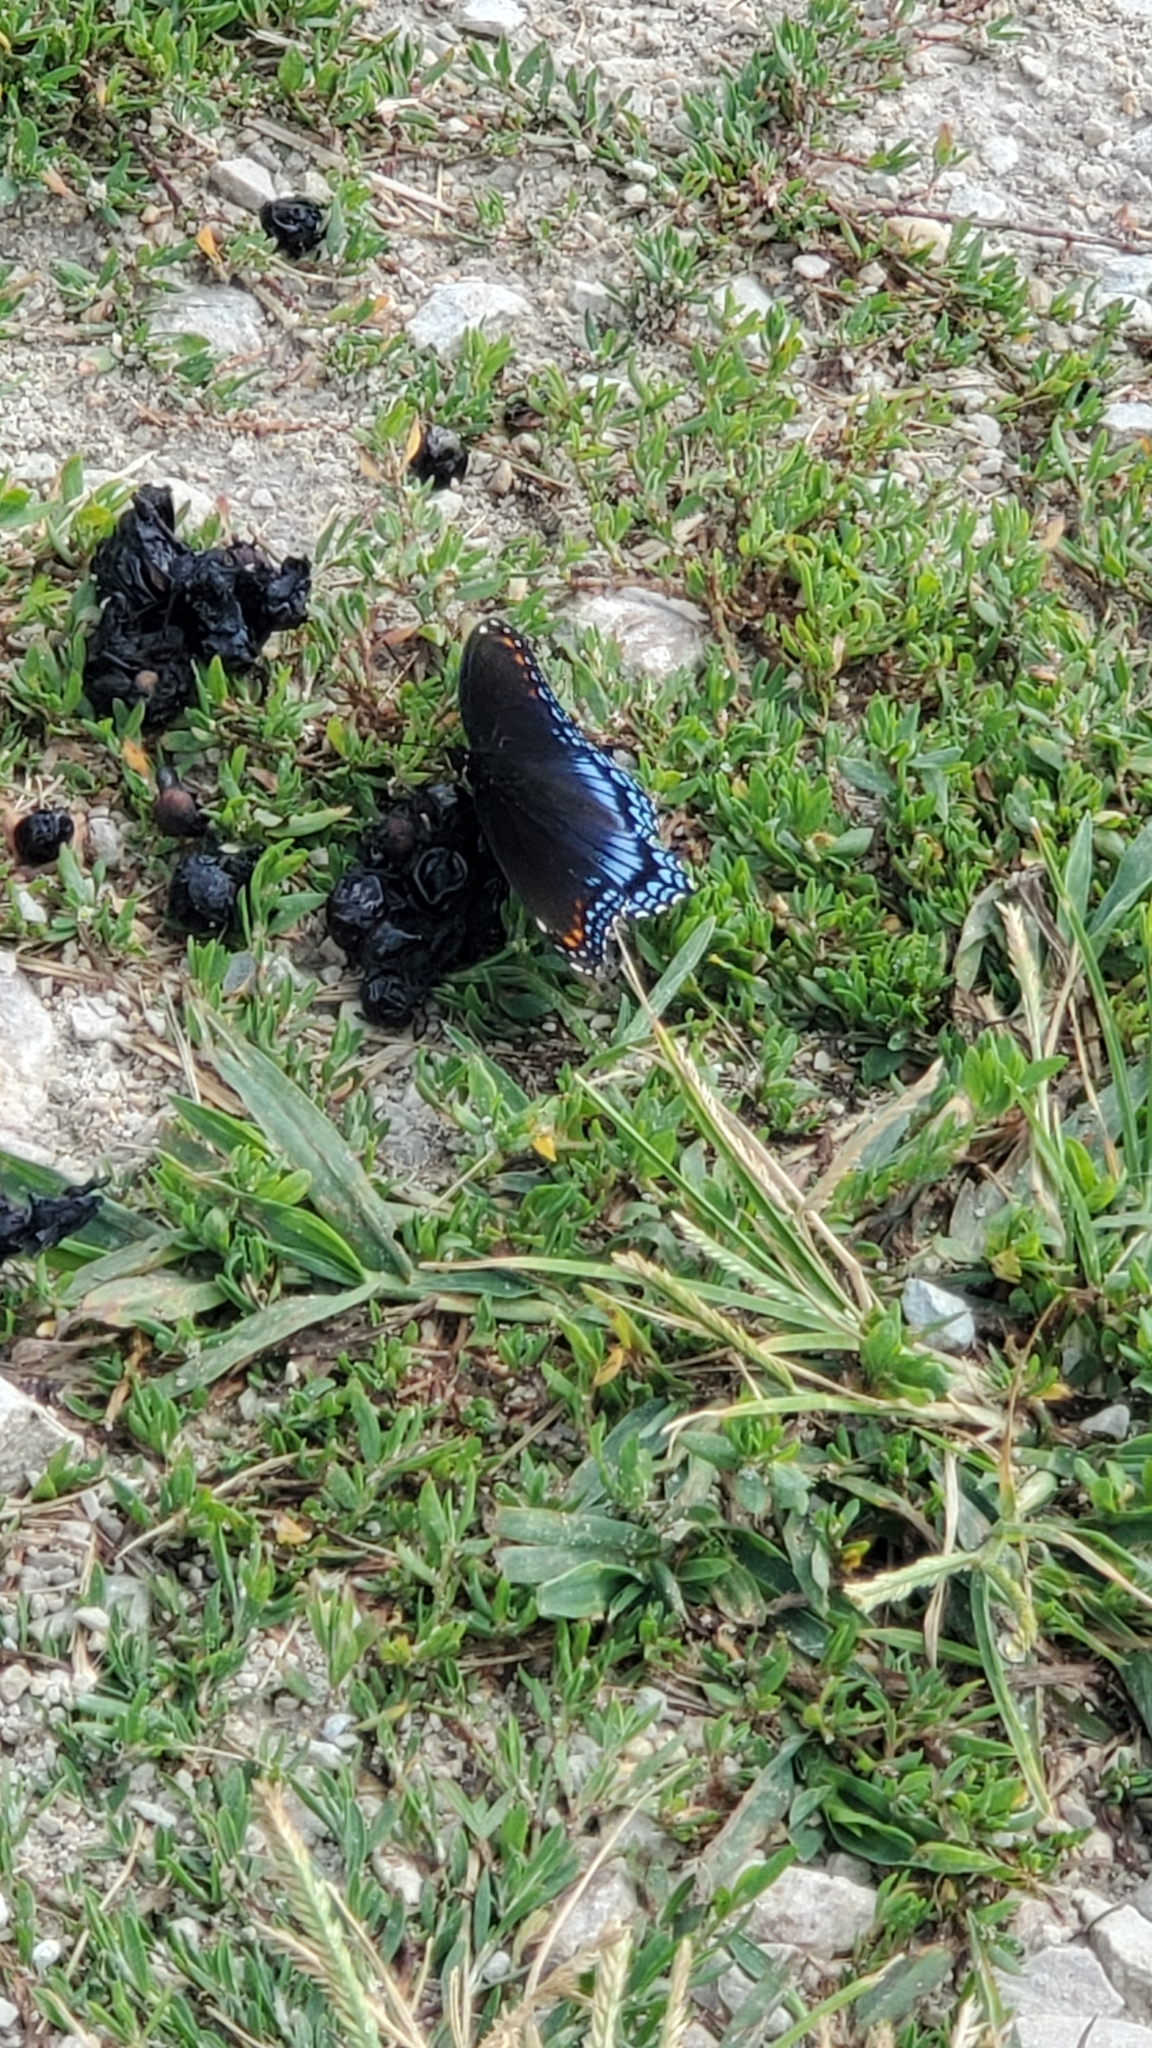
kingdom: Animalia
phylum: Arthropoda
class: Insecta
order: Lepidoptera
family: Nymphalidae
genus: Limenitis
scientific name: Limenitis astyanax
